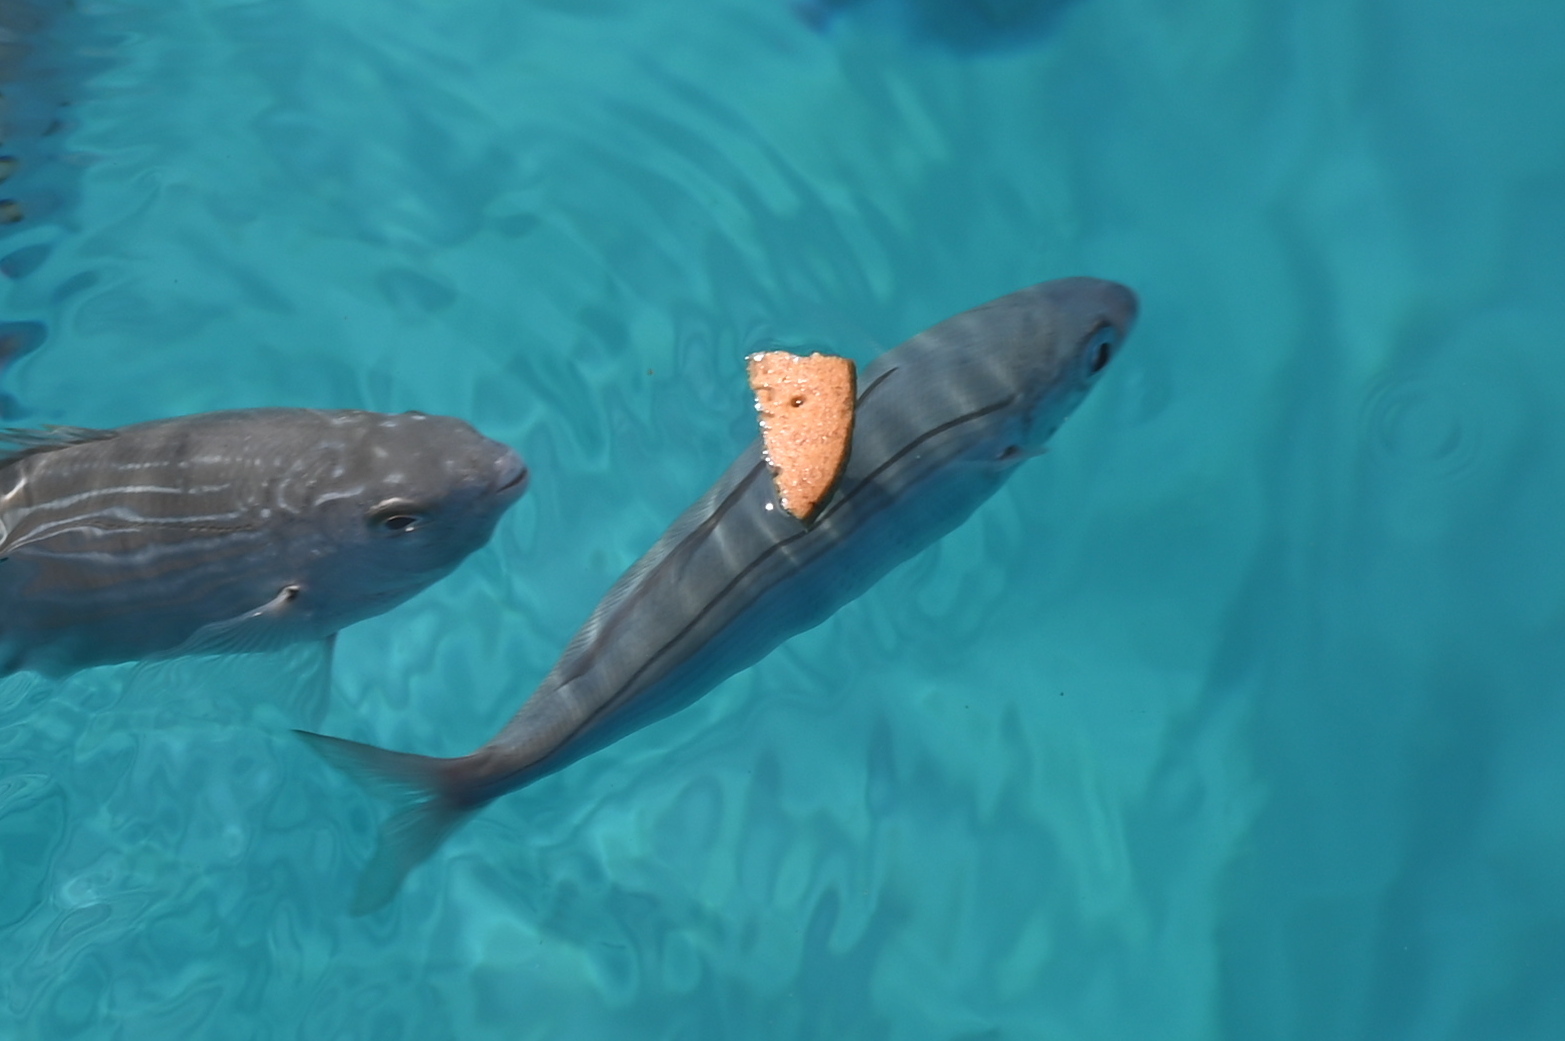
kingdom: Animalia
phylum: Chordata
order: Perciformes
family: Sparidae
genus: Boops
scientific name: Boops boops
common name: Bogue
